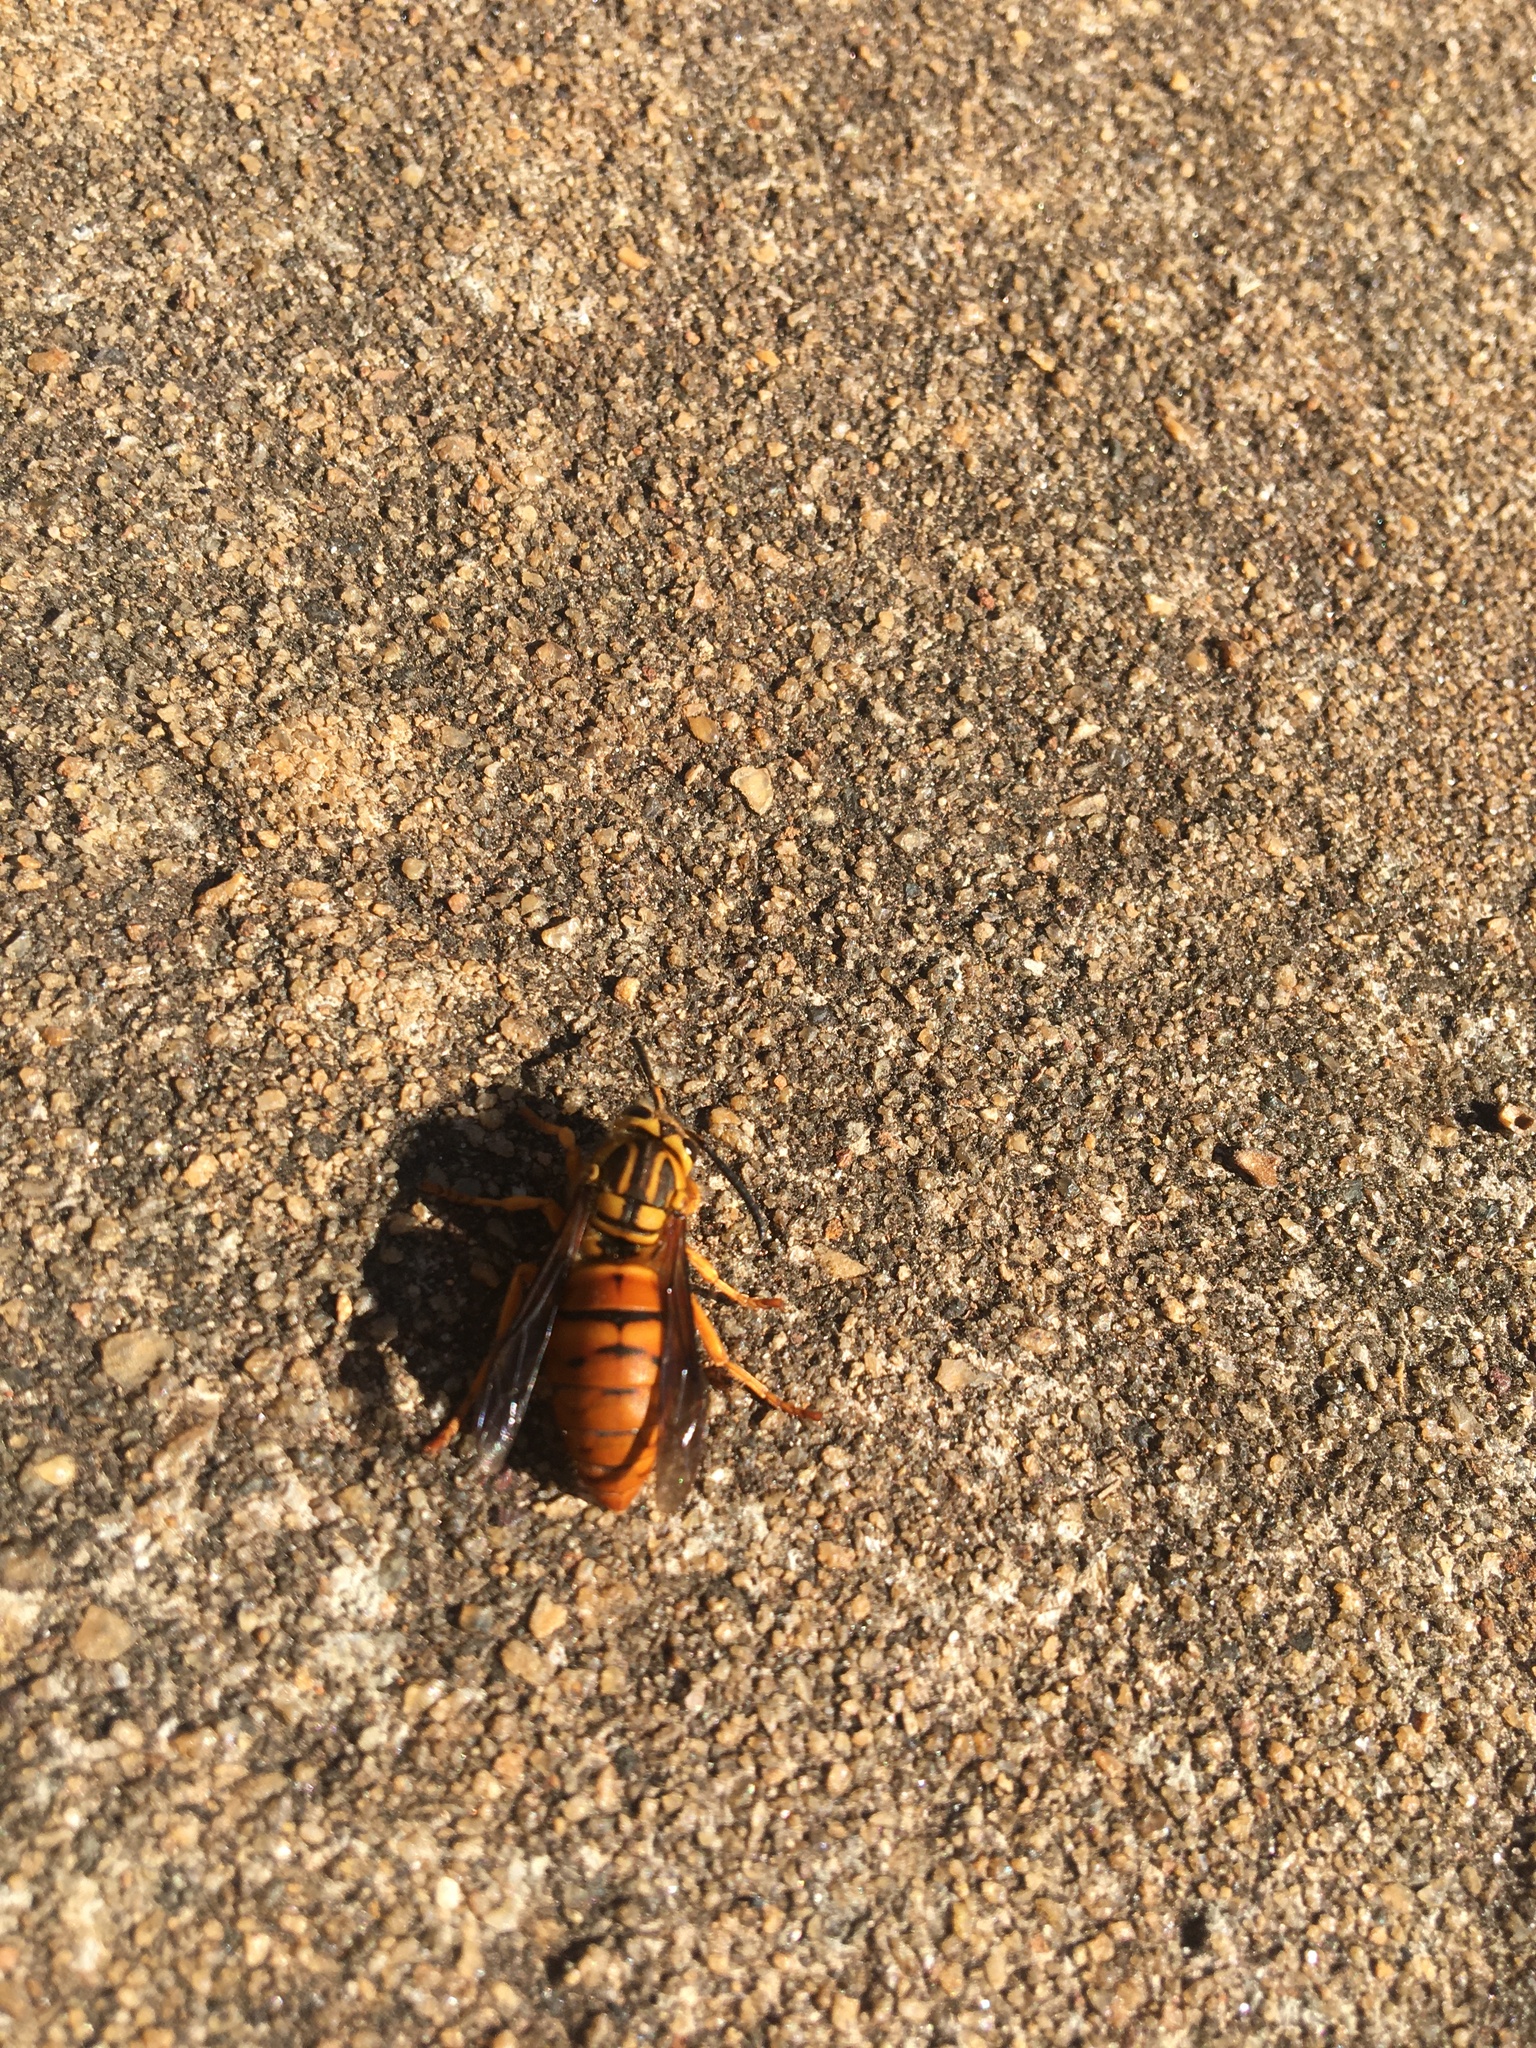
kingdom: Animalia
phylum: Arthropoda
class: Insecta
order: Hymenoptera
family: Vespidae
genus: Vespula
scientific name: Vespula squamosa
